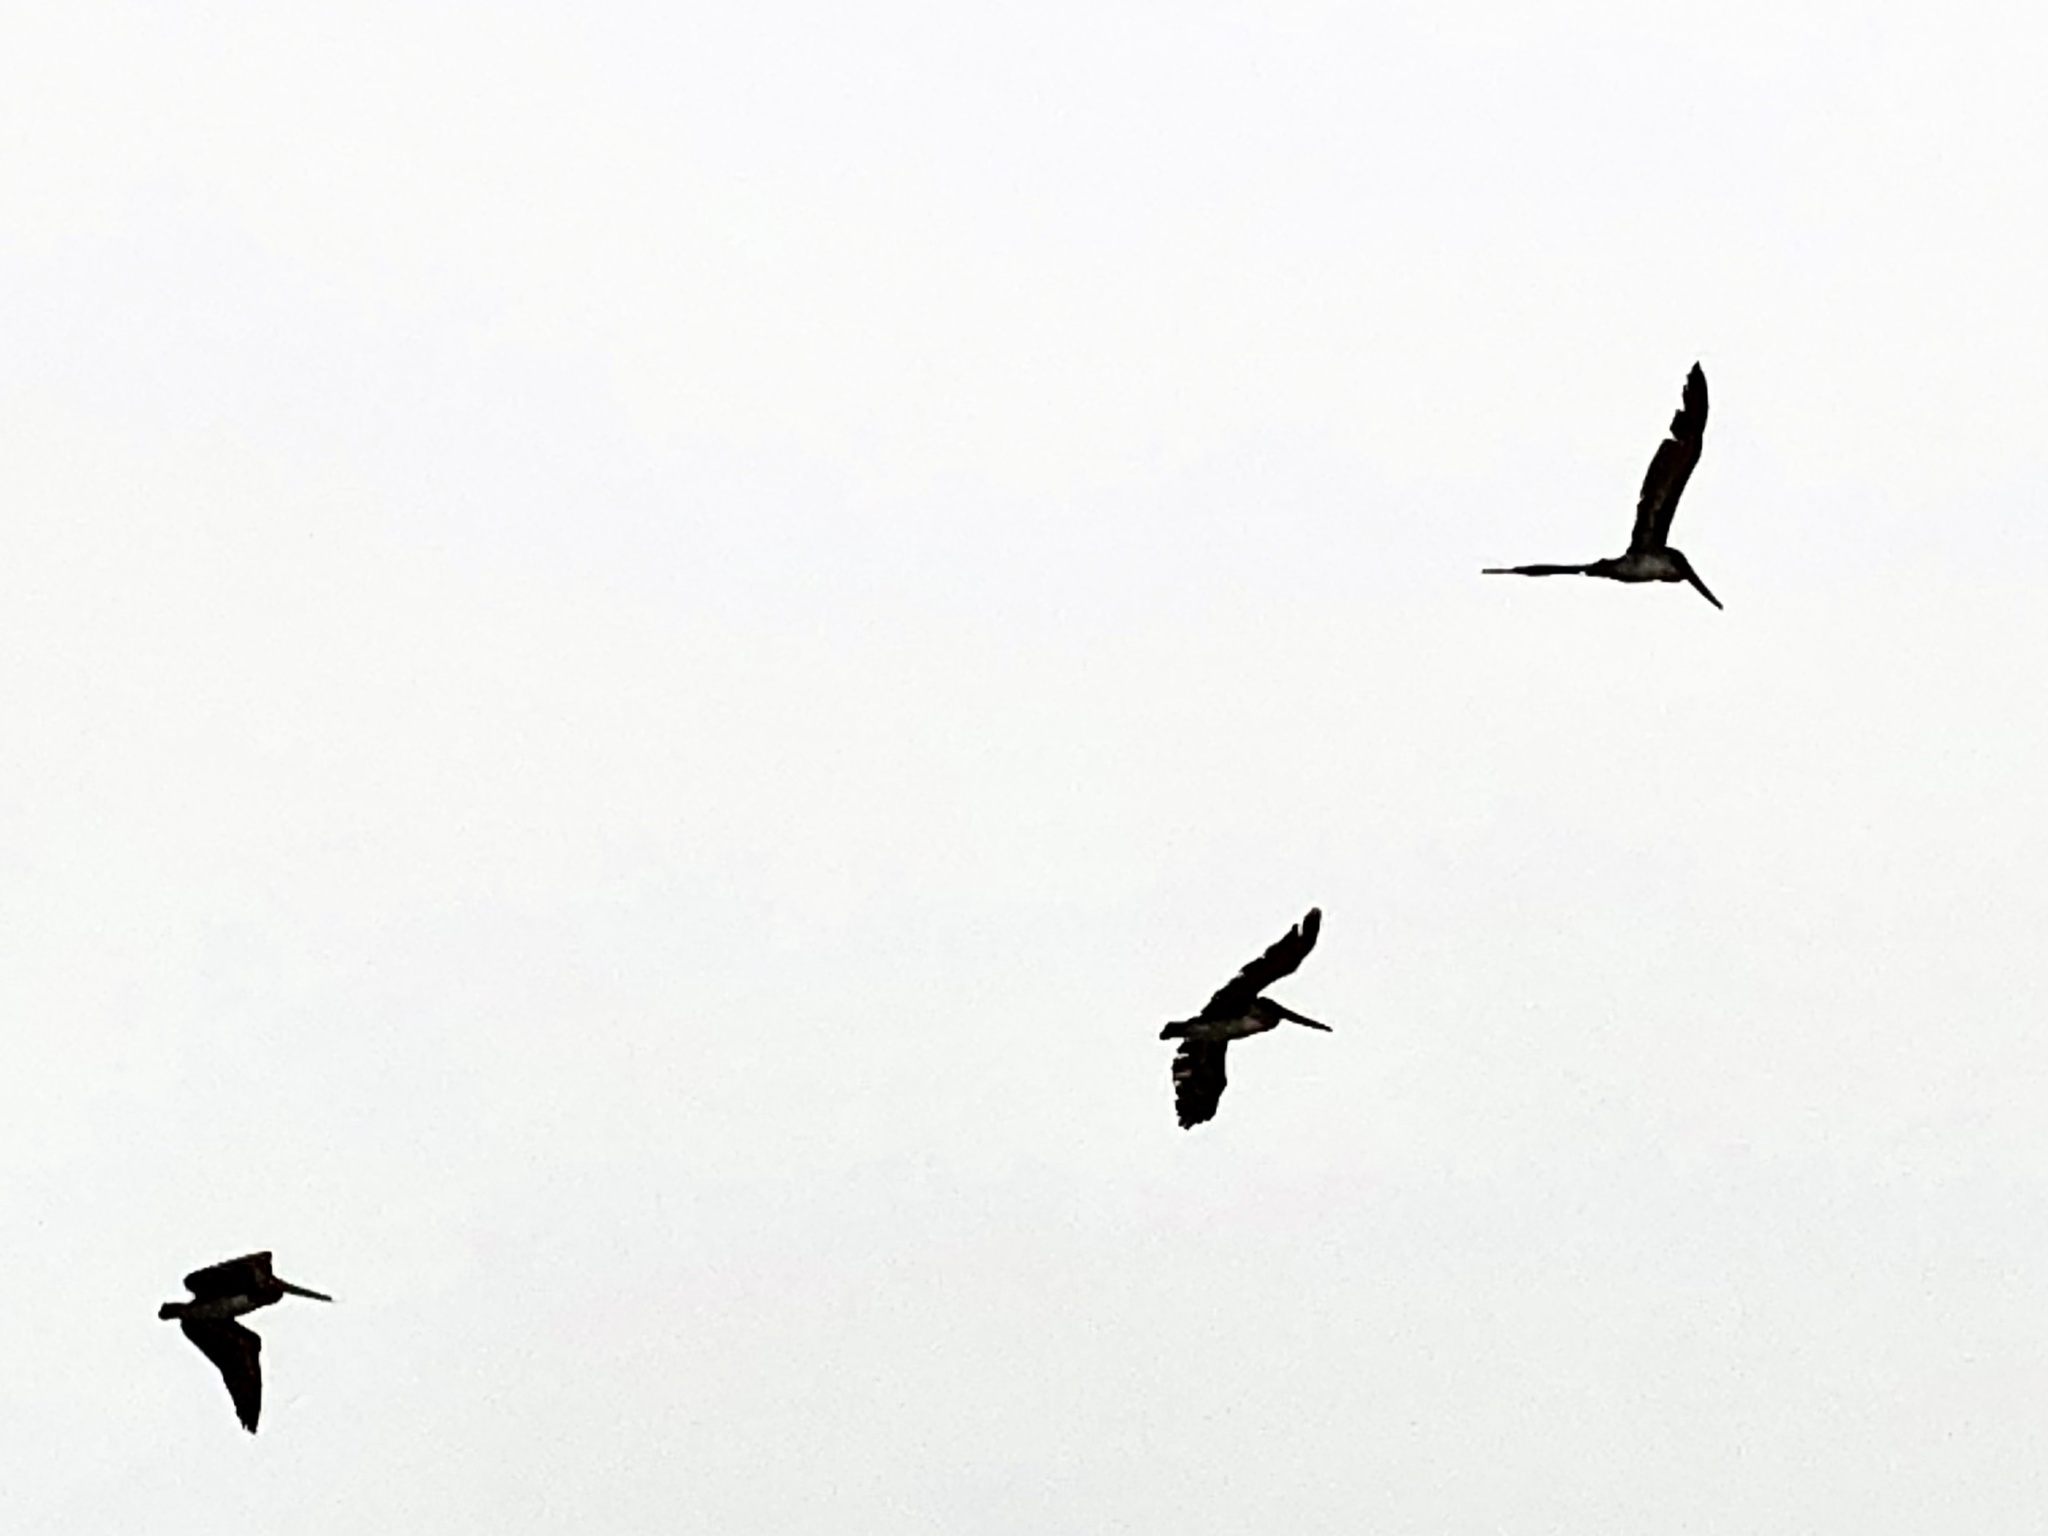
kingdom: Animalia
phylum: Chordata
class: Aves
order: Pelecaniformes
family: Pelecanidae
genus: Pelecanus
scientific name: Pelecanus occidentalis
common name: Brown pelican
